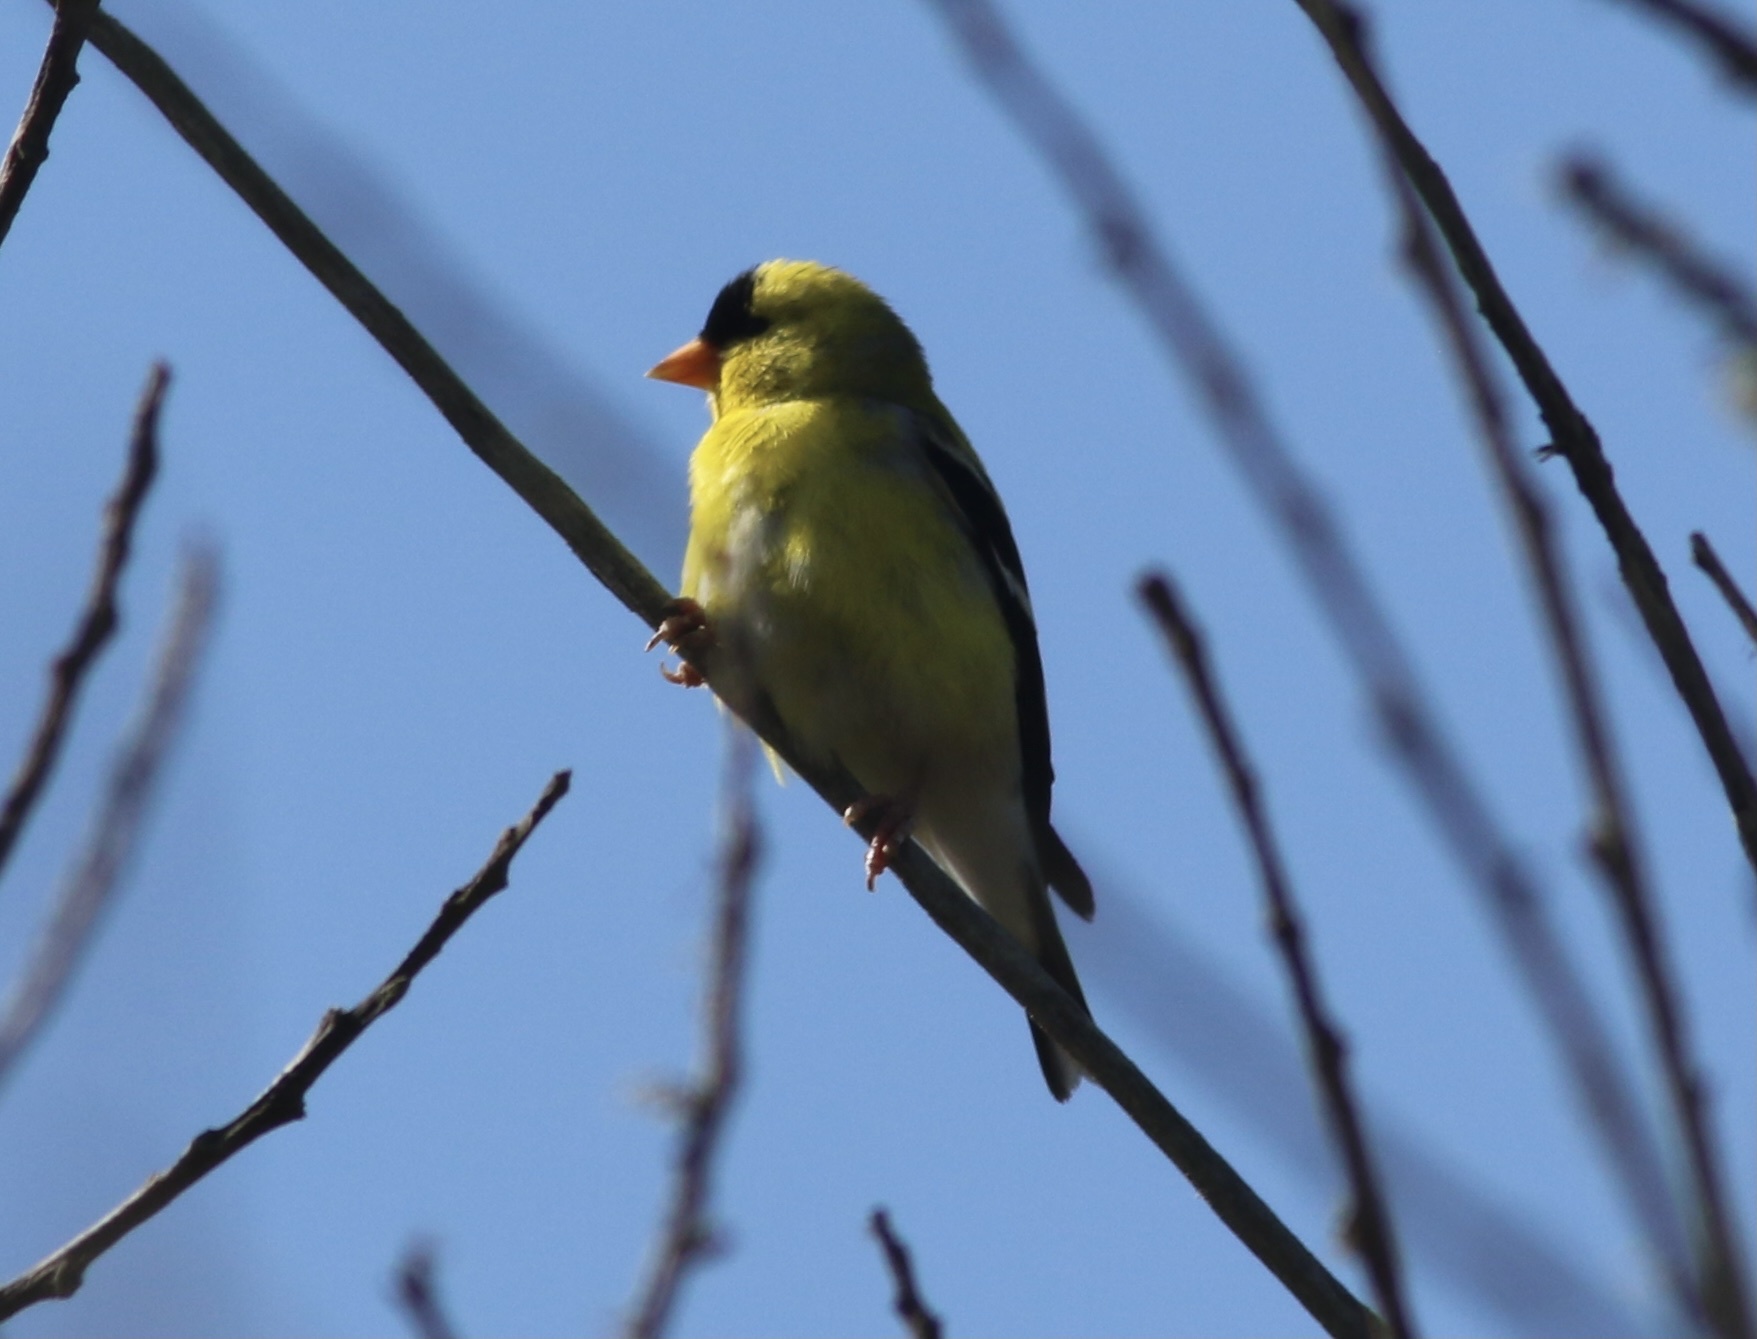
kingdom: Animalia
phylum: Chordata
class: Aves
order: Passeriformes
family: Fringillidae
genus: Spinus
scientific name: Spinus tristis
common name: American goldfinch
